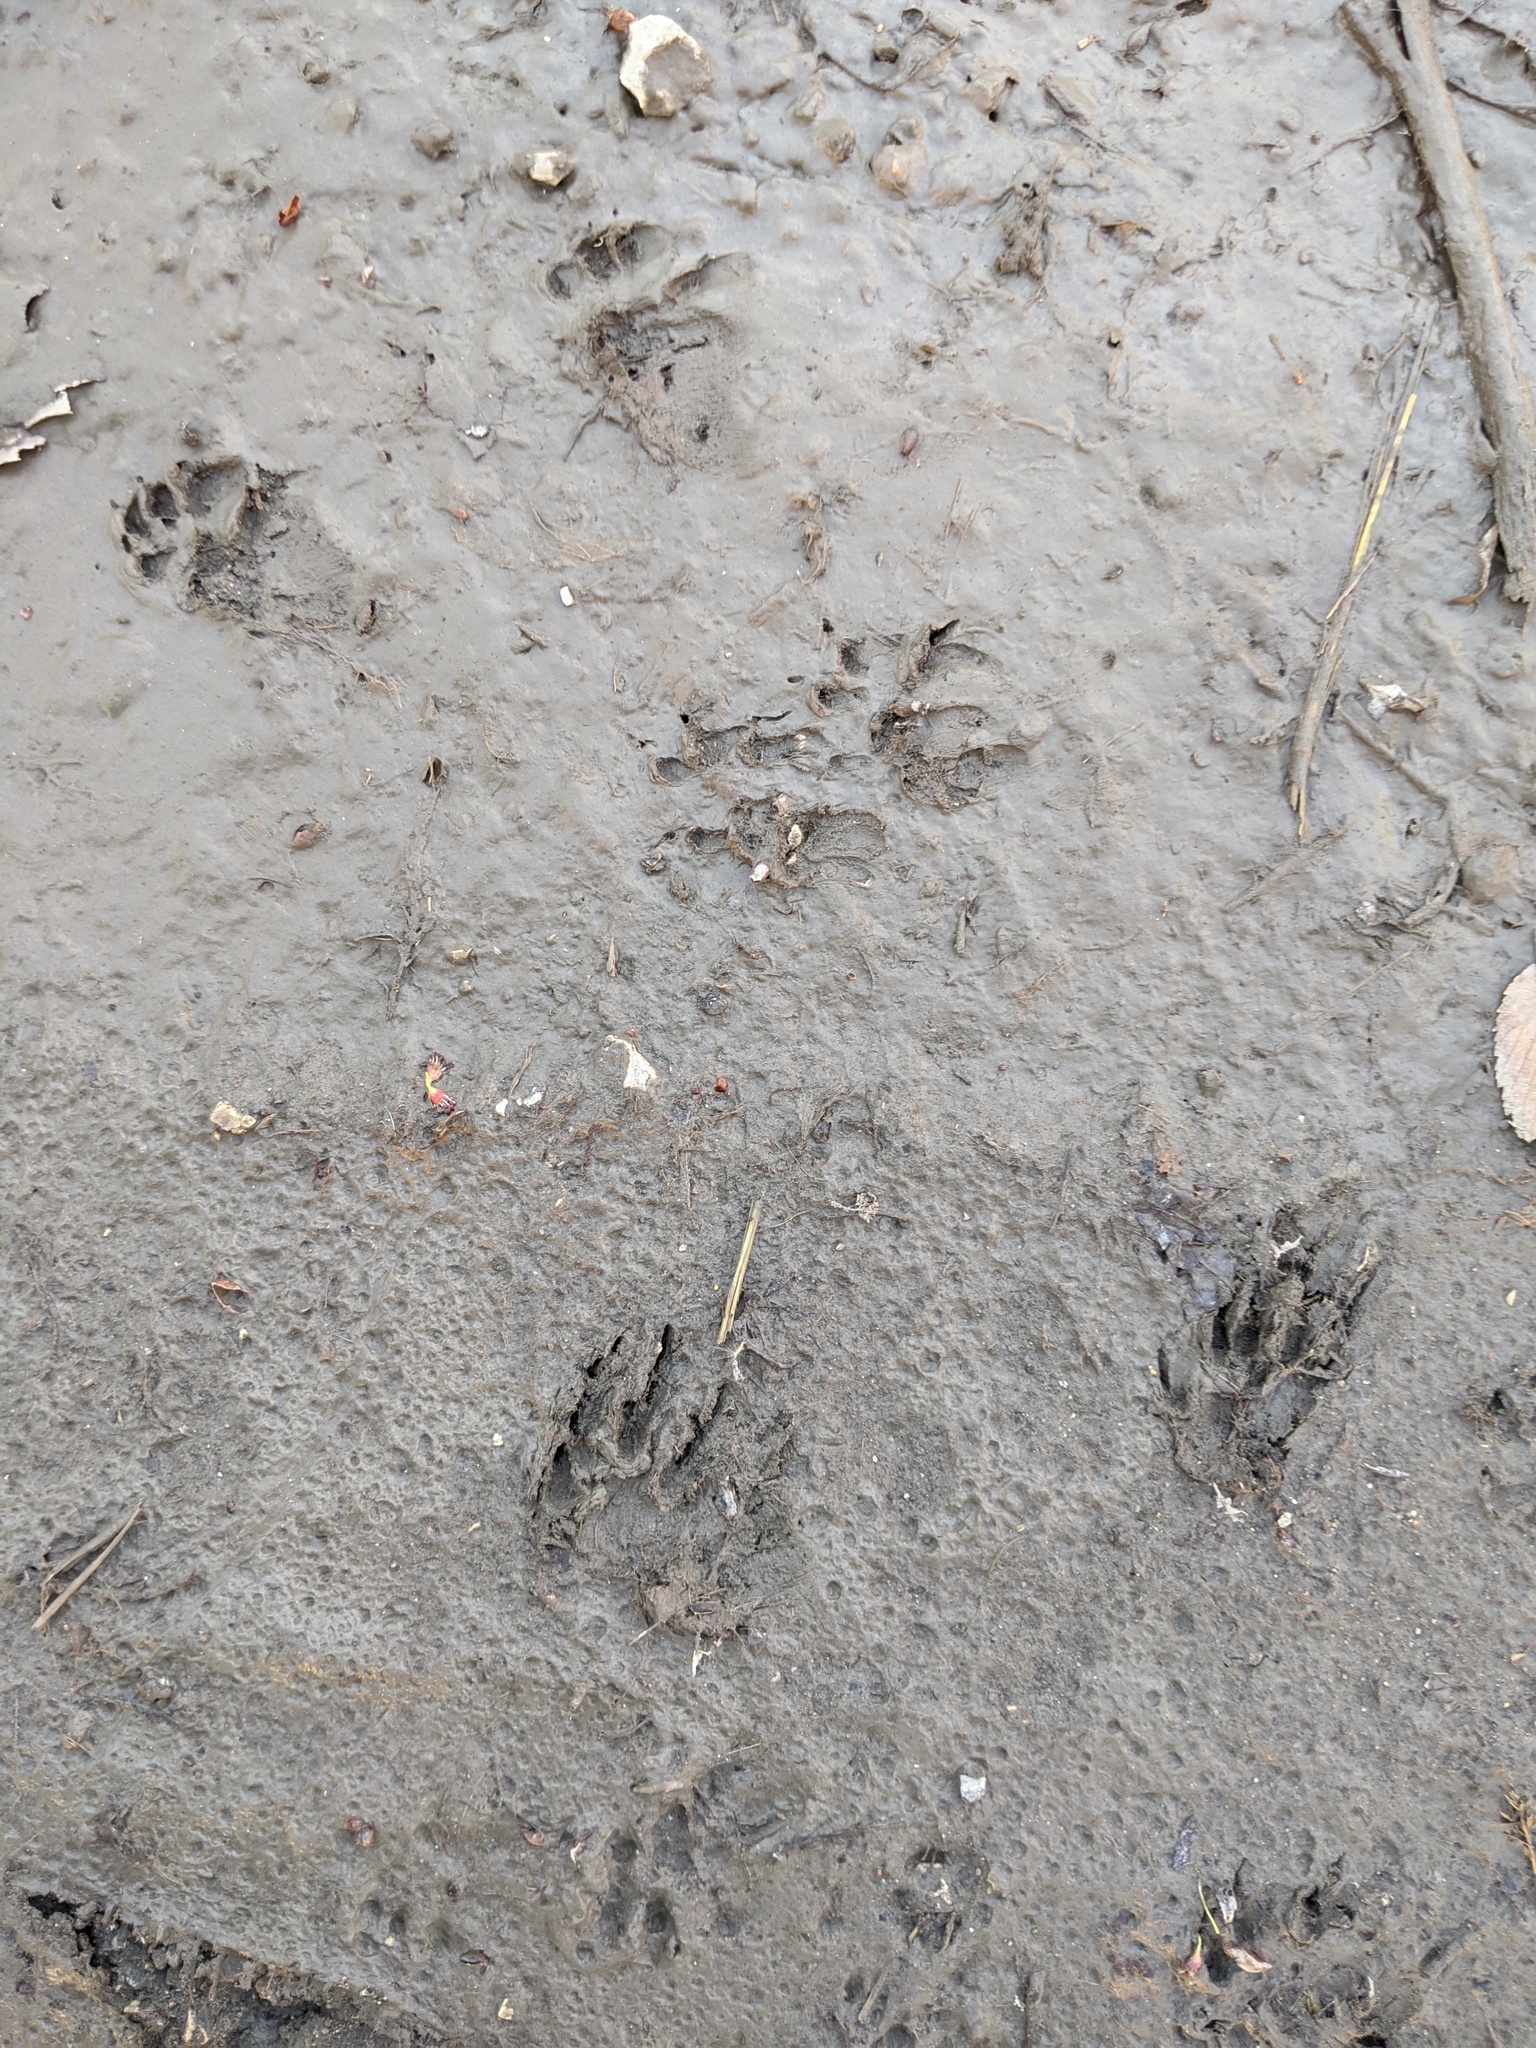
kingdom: Animalia
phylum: Chordata
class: Mammalia
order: Carnivora
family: Procyonidae
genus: Procyon
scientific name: Procyon lotor
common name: Raccoon
